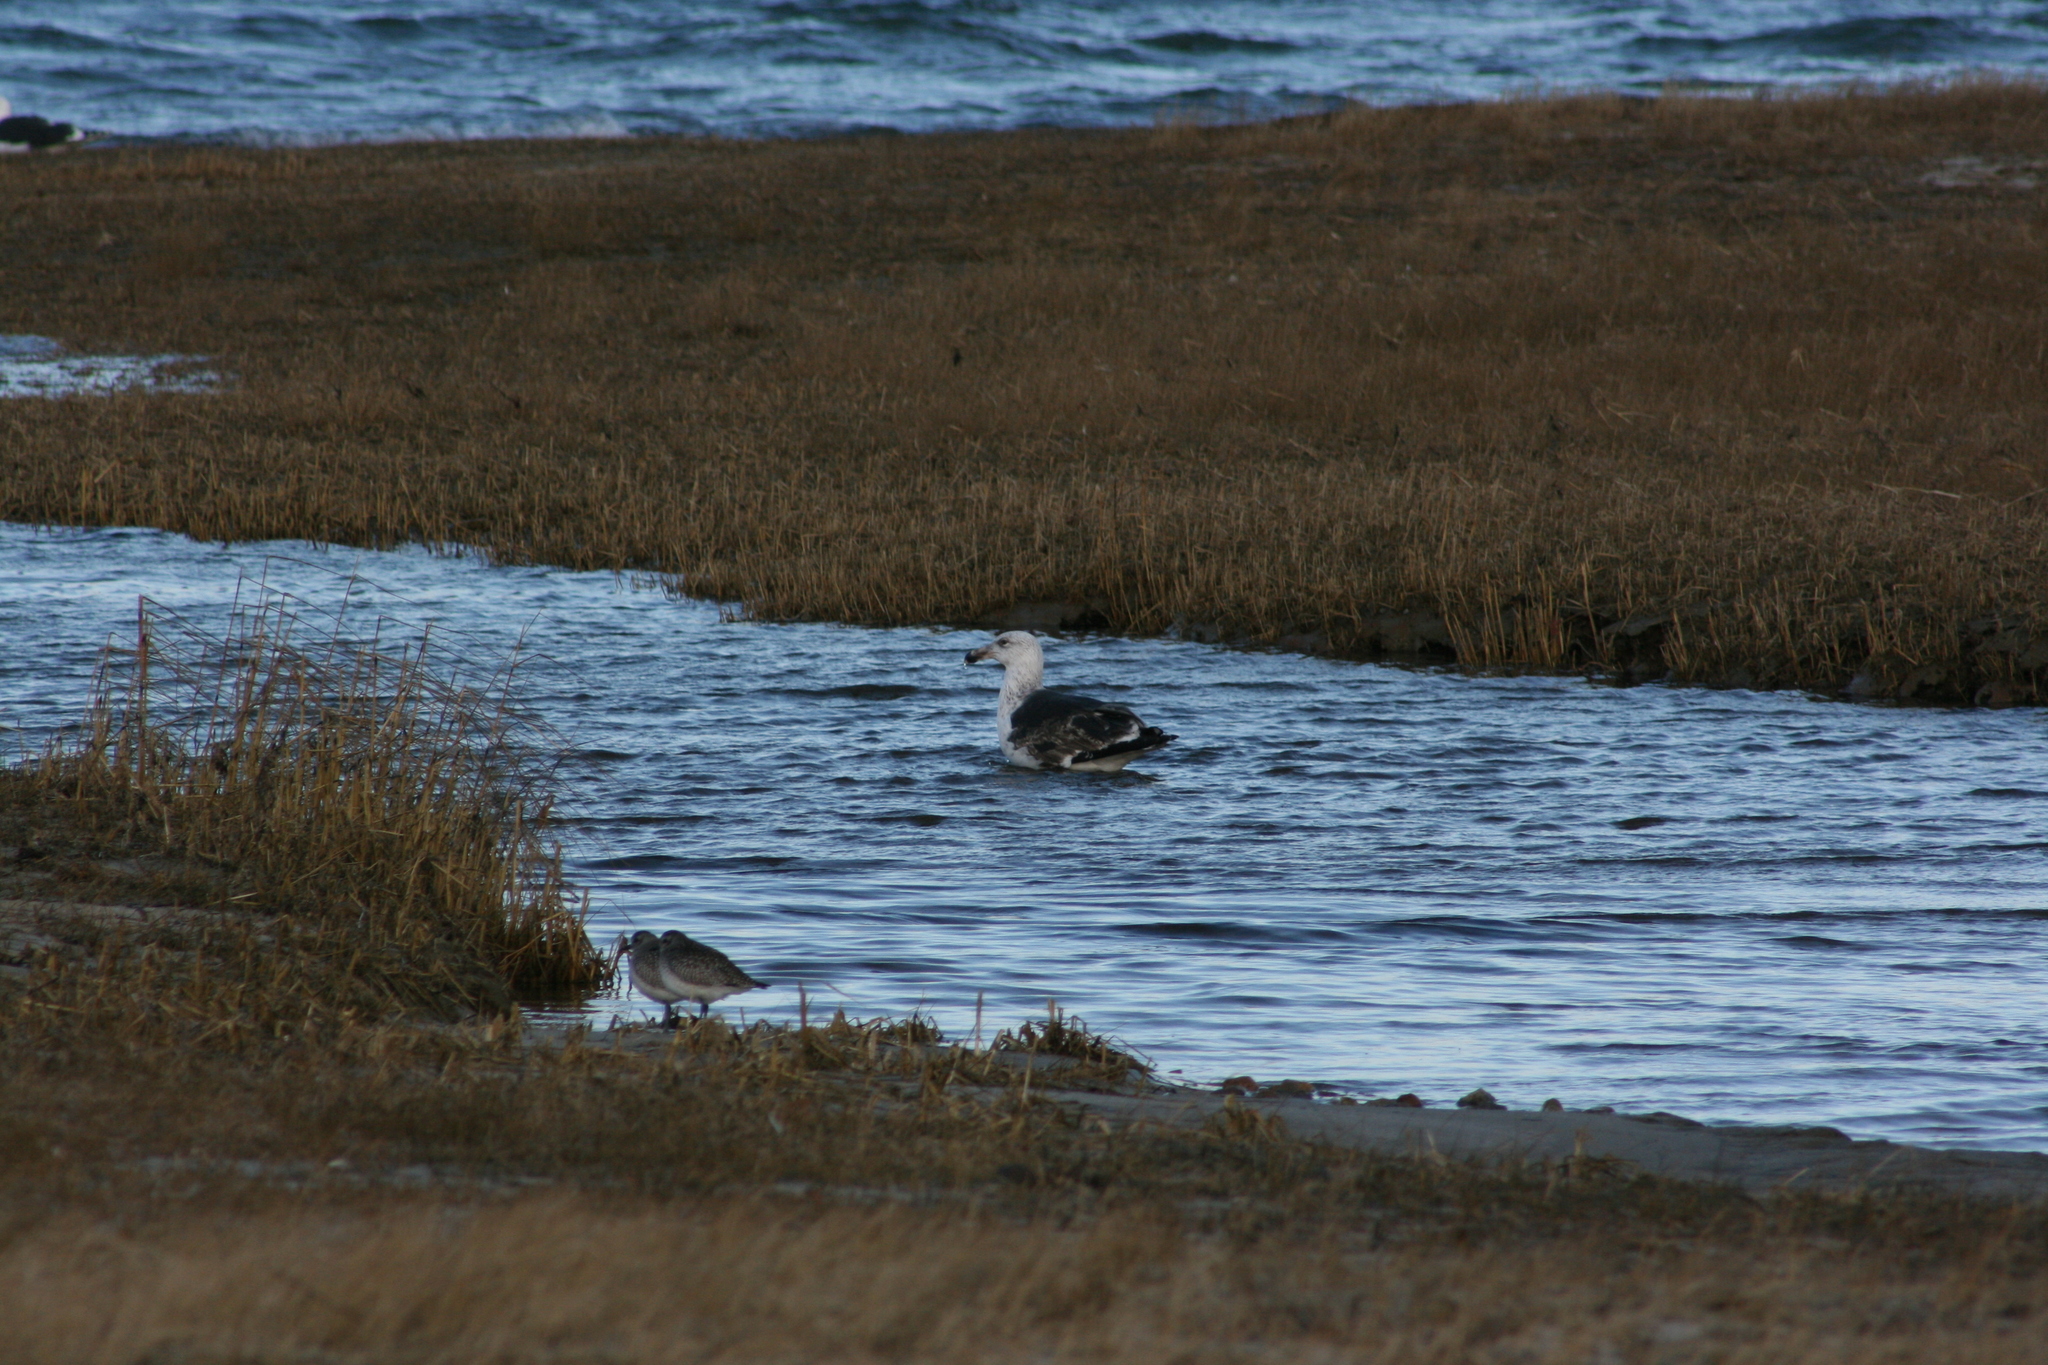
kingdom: Animalia
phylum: Chordata
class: Aves
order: Charadriiformes
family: Laridae
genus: Larus
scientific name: Larus marinus
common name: Great black-backed gull
